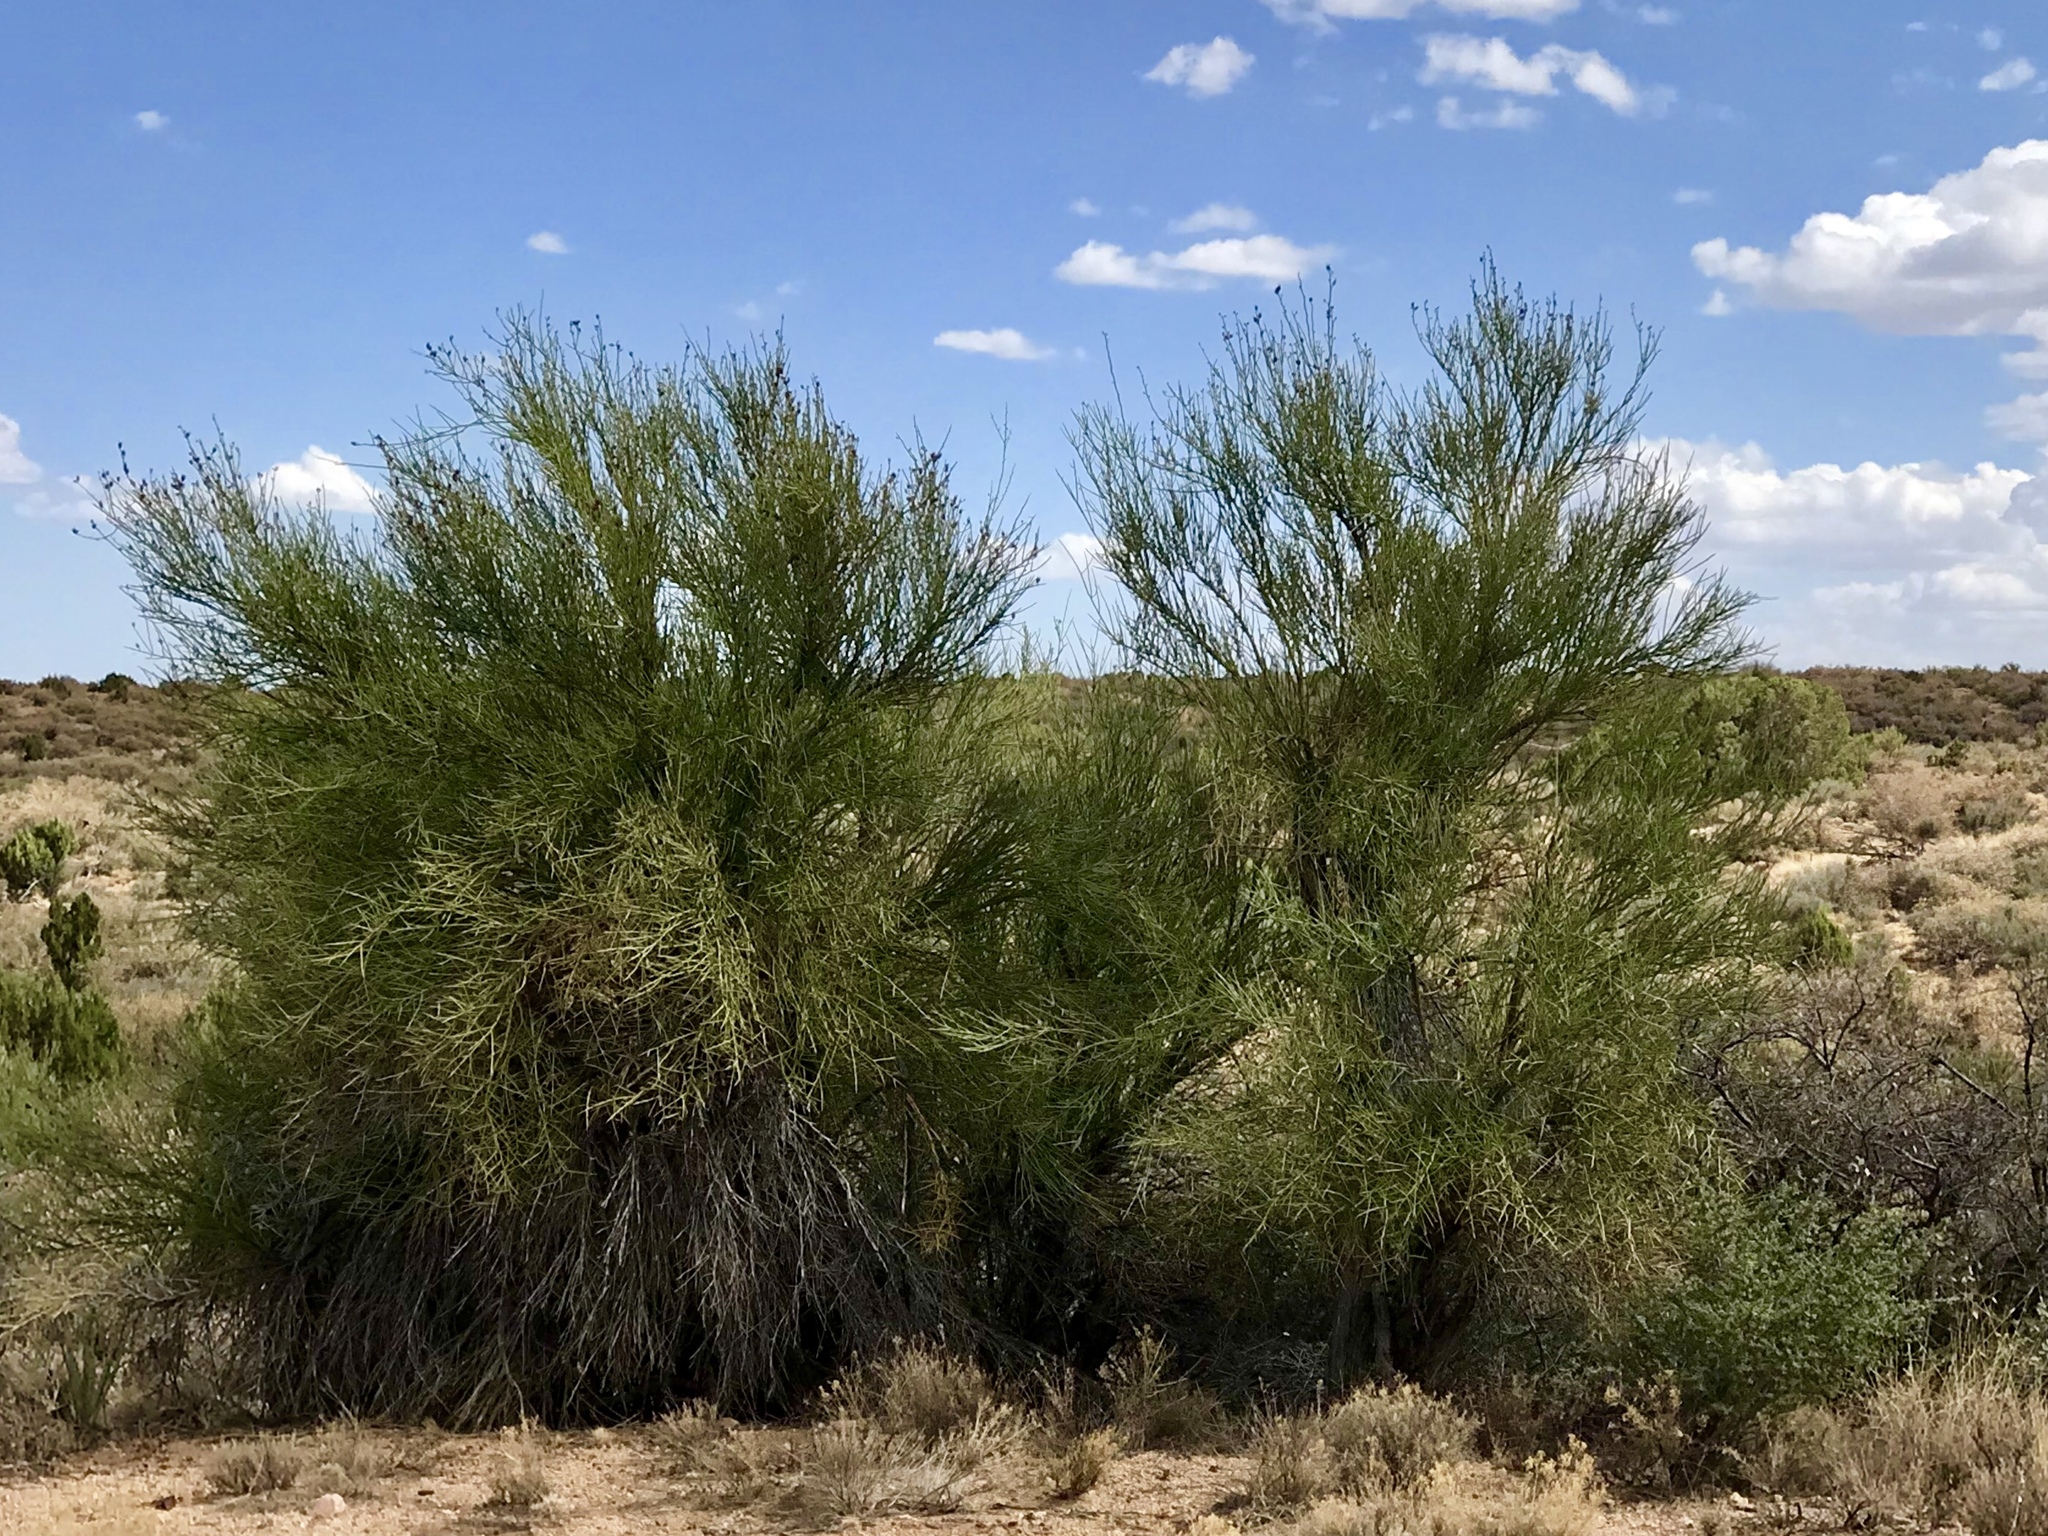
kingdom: Plantae
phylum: Tracheophyta
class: Magnoliopsida
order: Celastrales
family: Celastraceae
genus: Canotia
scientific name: Canotia holacantha
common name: Crucifixion thorns
